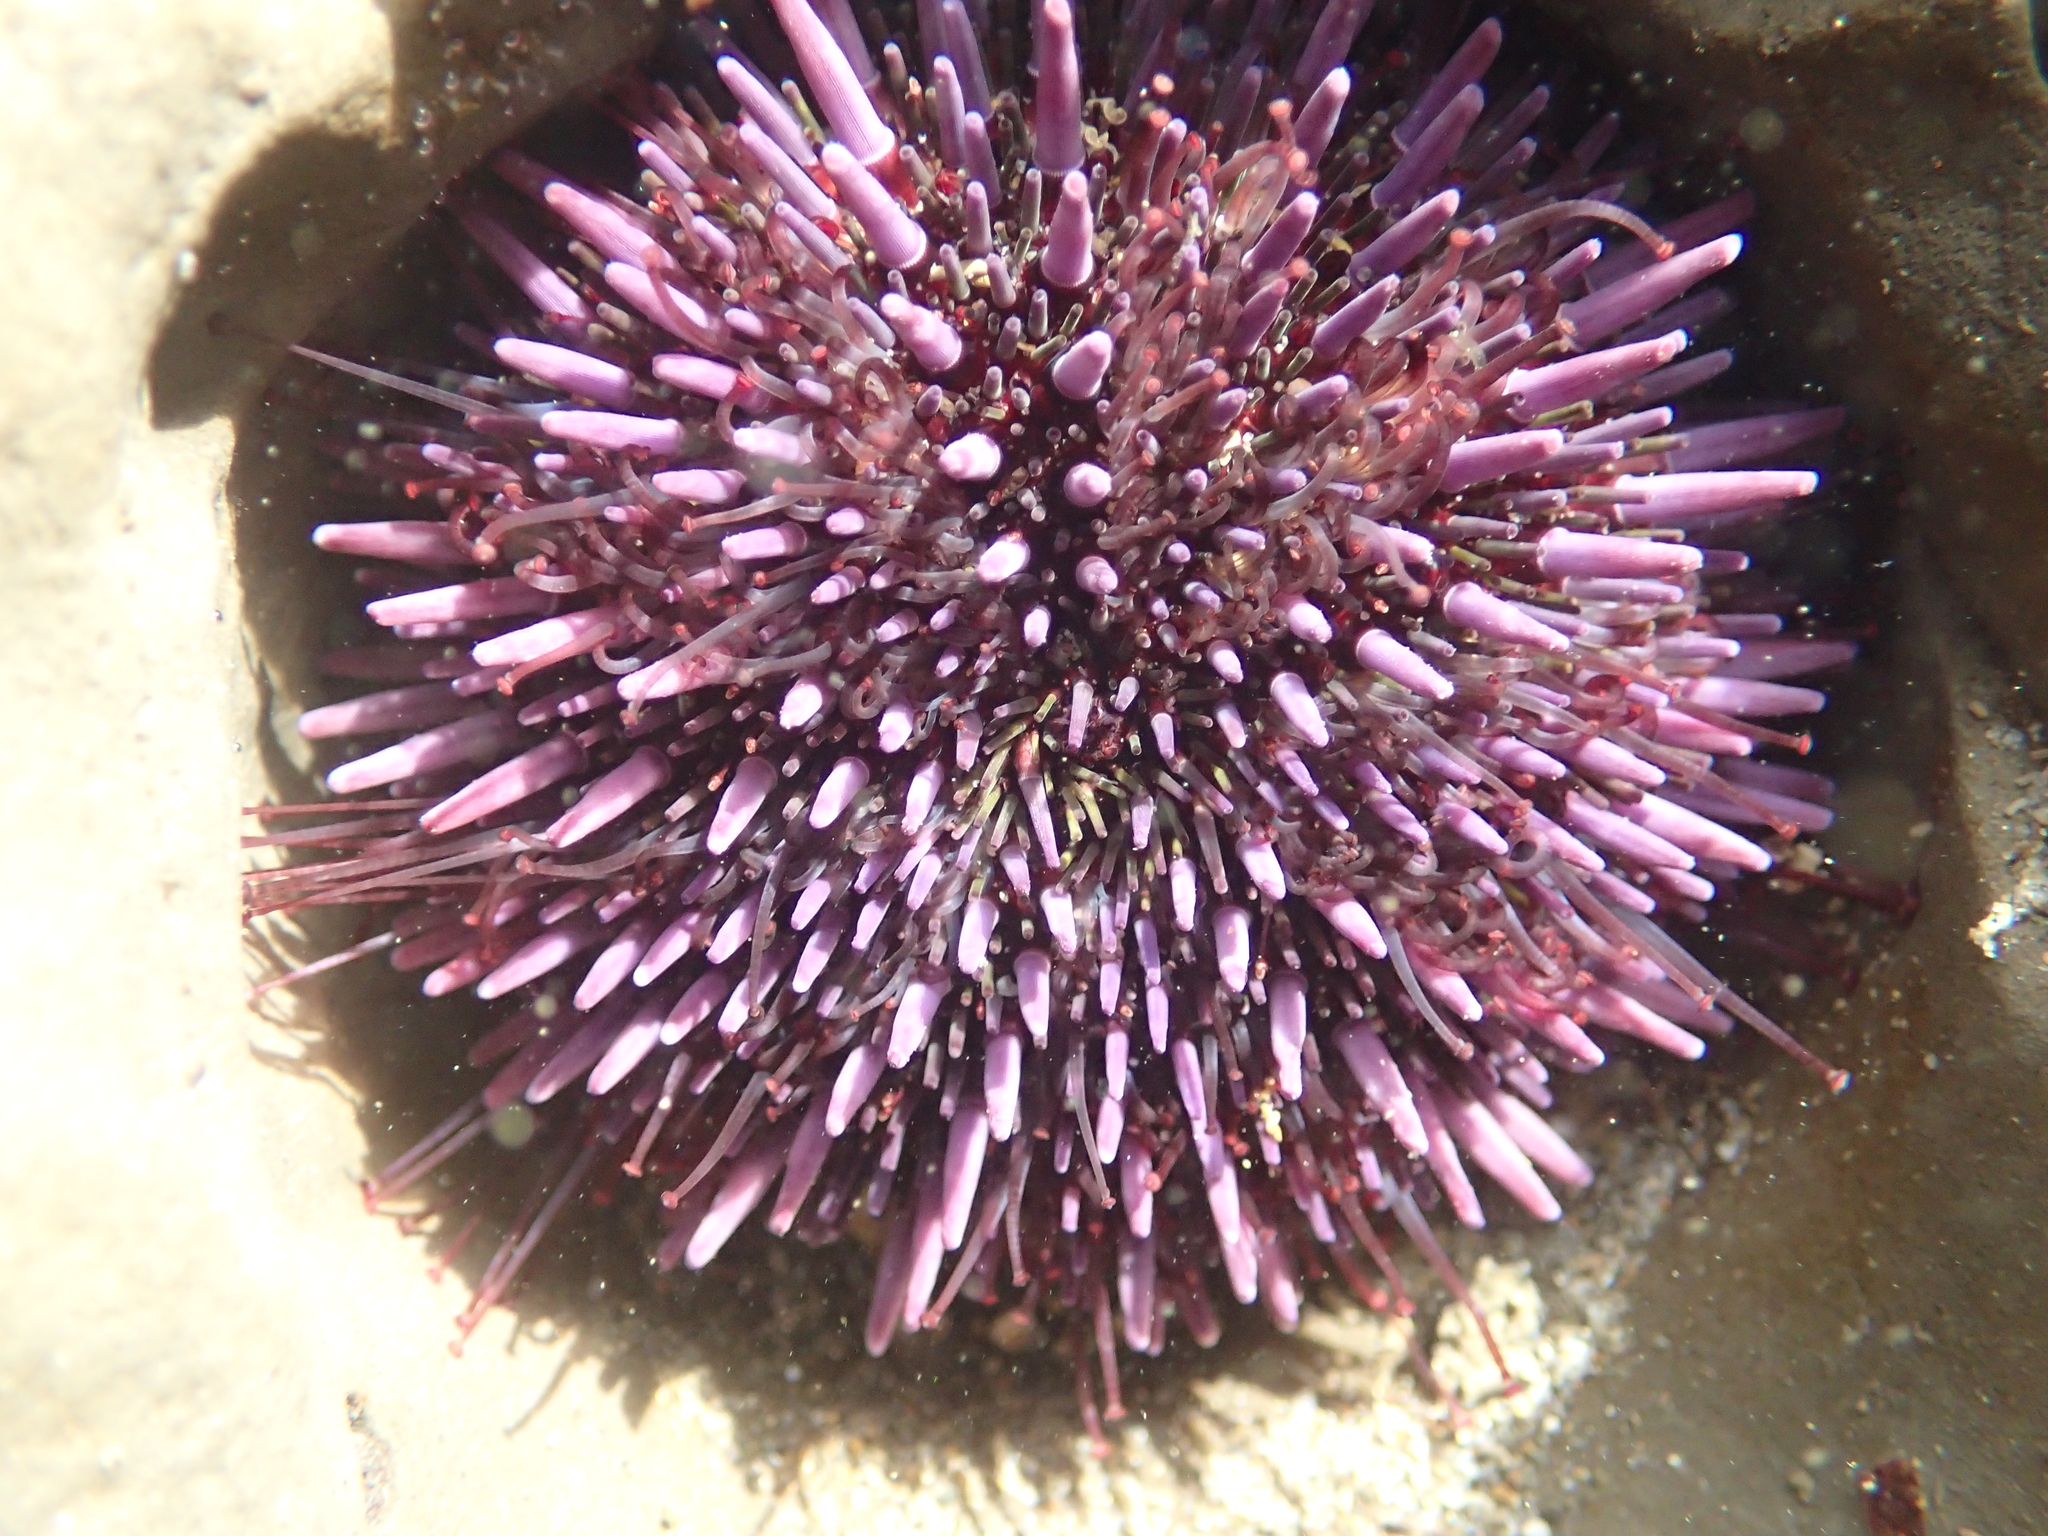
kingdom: Animalia
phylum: Echinodermata
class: Echinoidea
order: Camarodonta
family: Strongylocentrotidae
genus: Strongylocentrotus
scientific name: Strongylocentrotus purpuratus
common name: Purple sea urchin
